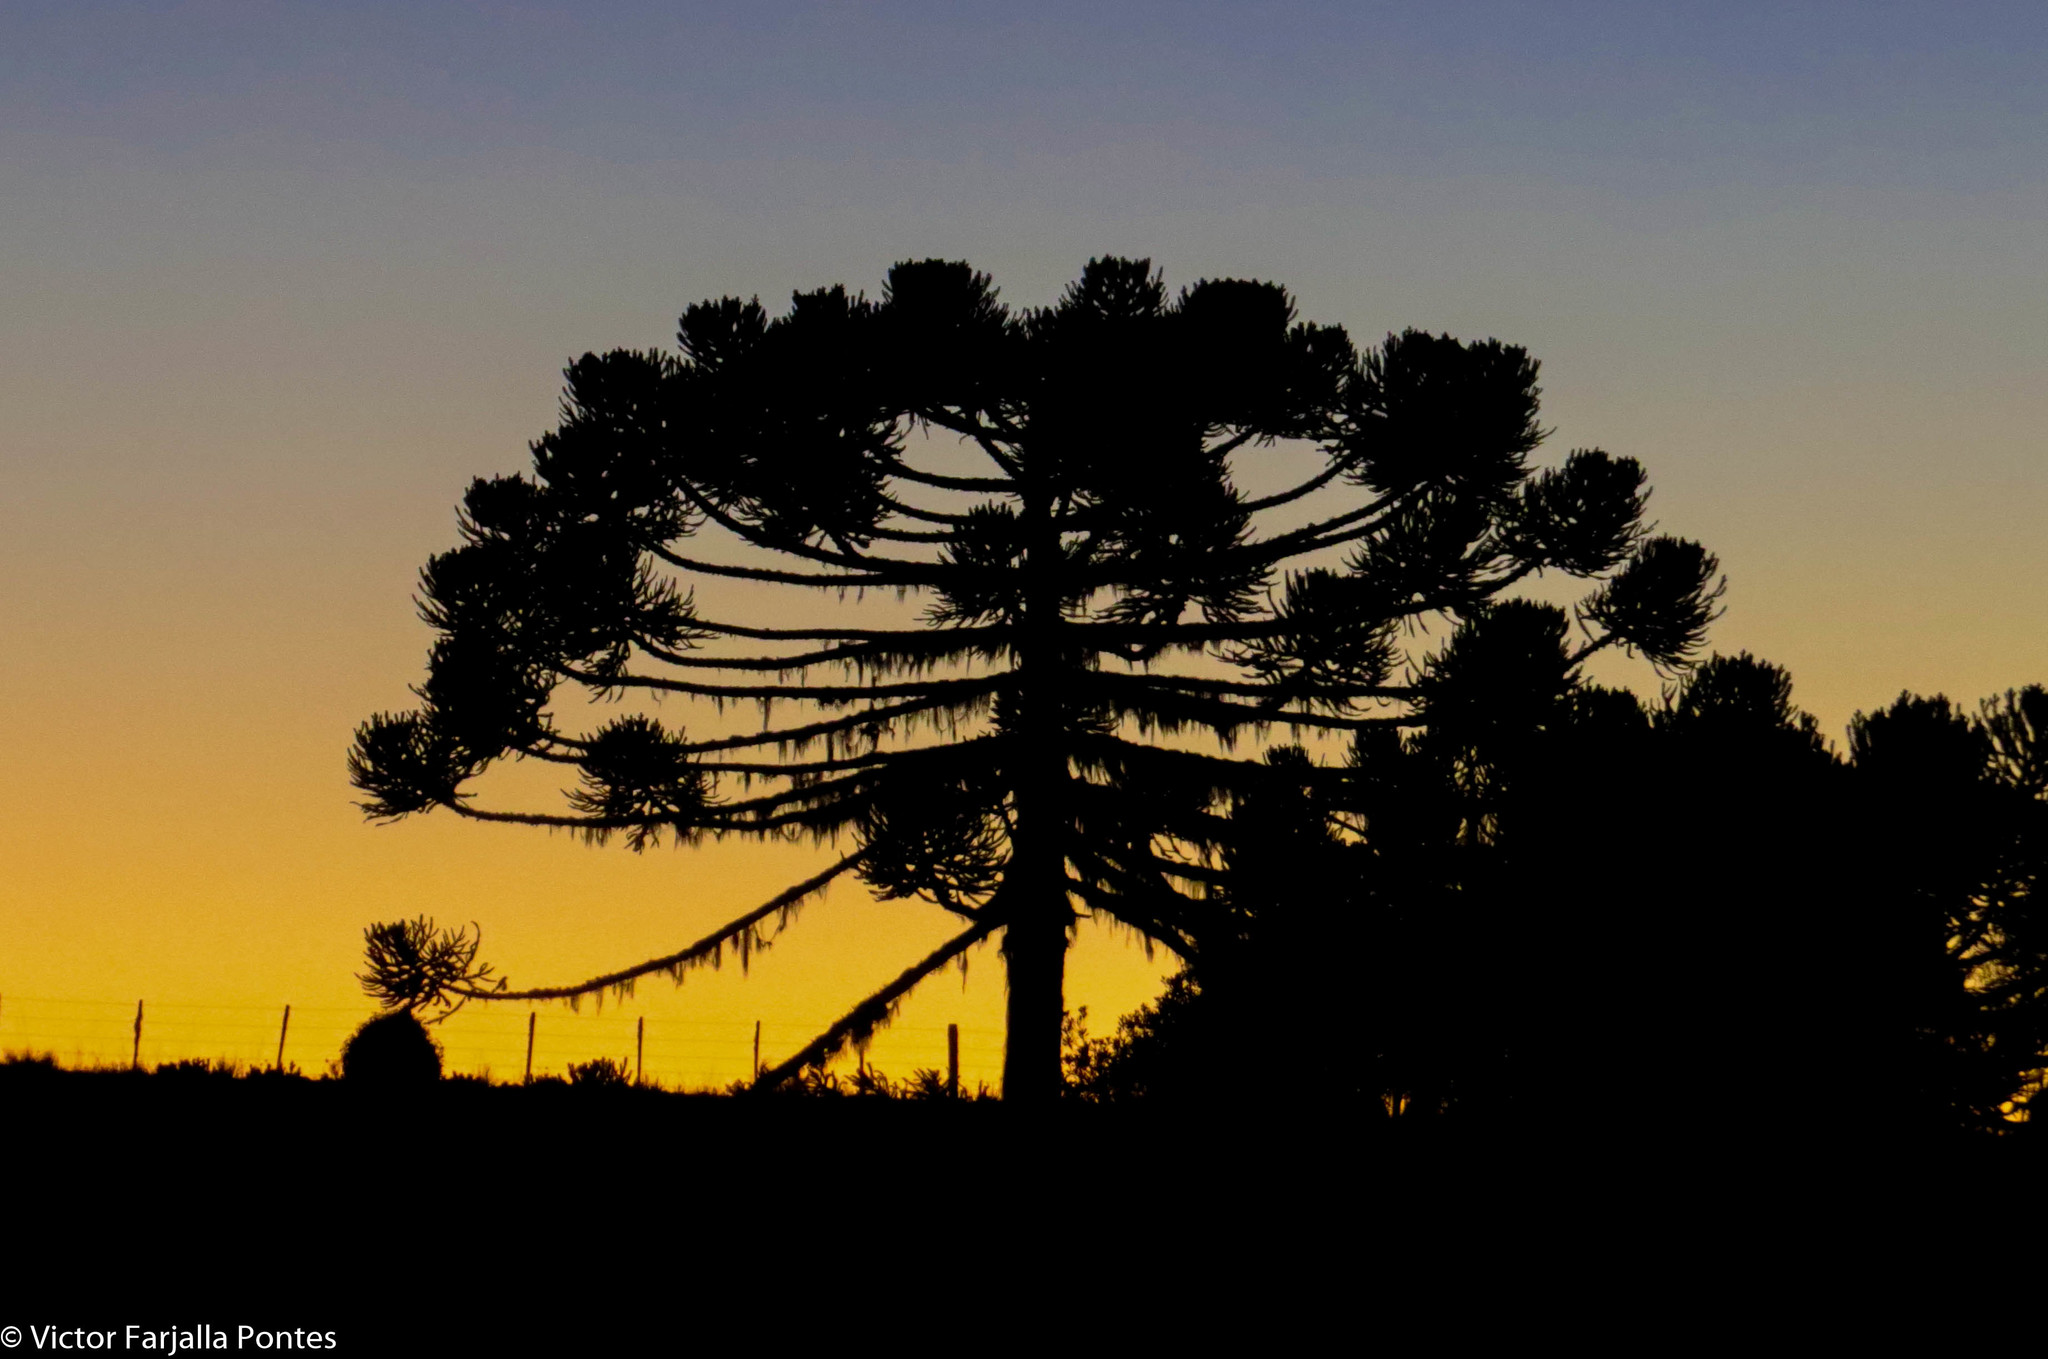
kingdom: Plantae
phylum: Tracheophyta
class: Pinopsida
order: Pinales
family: Araucariaceae
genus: Araucaria
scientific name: Araucaria angustifolia
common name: Candelabra tree
